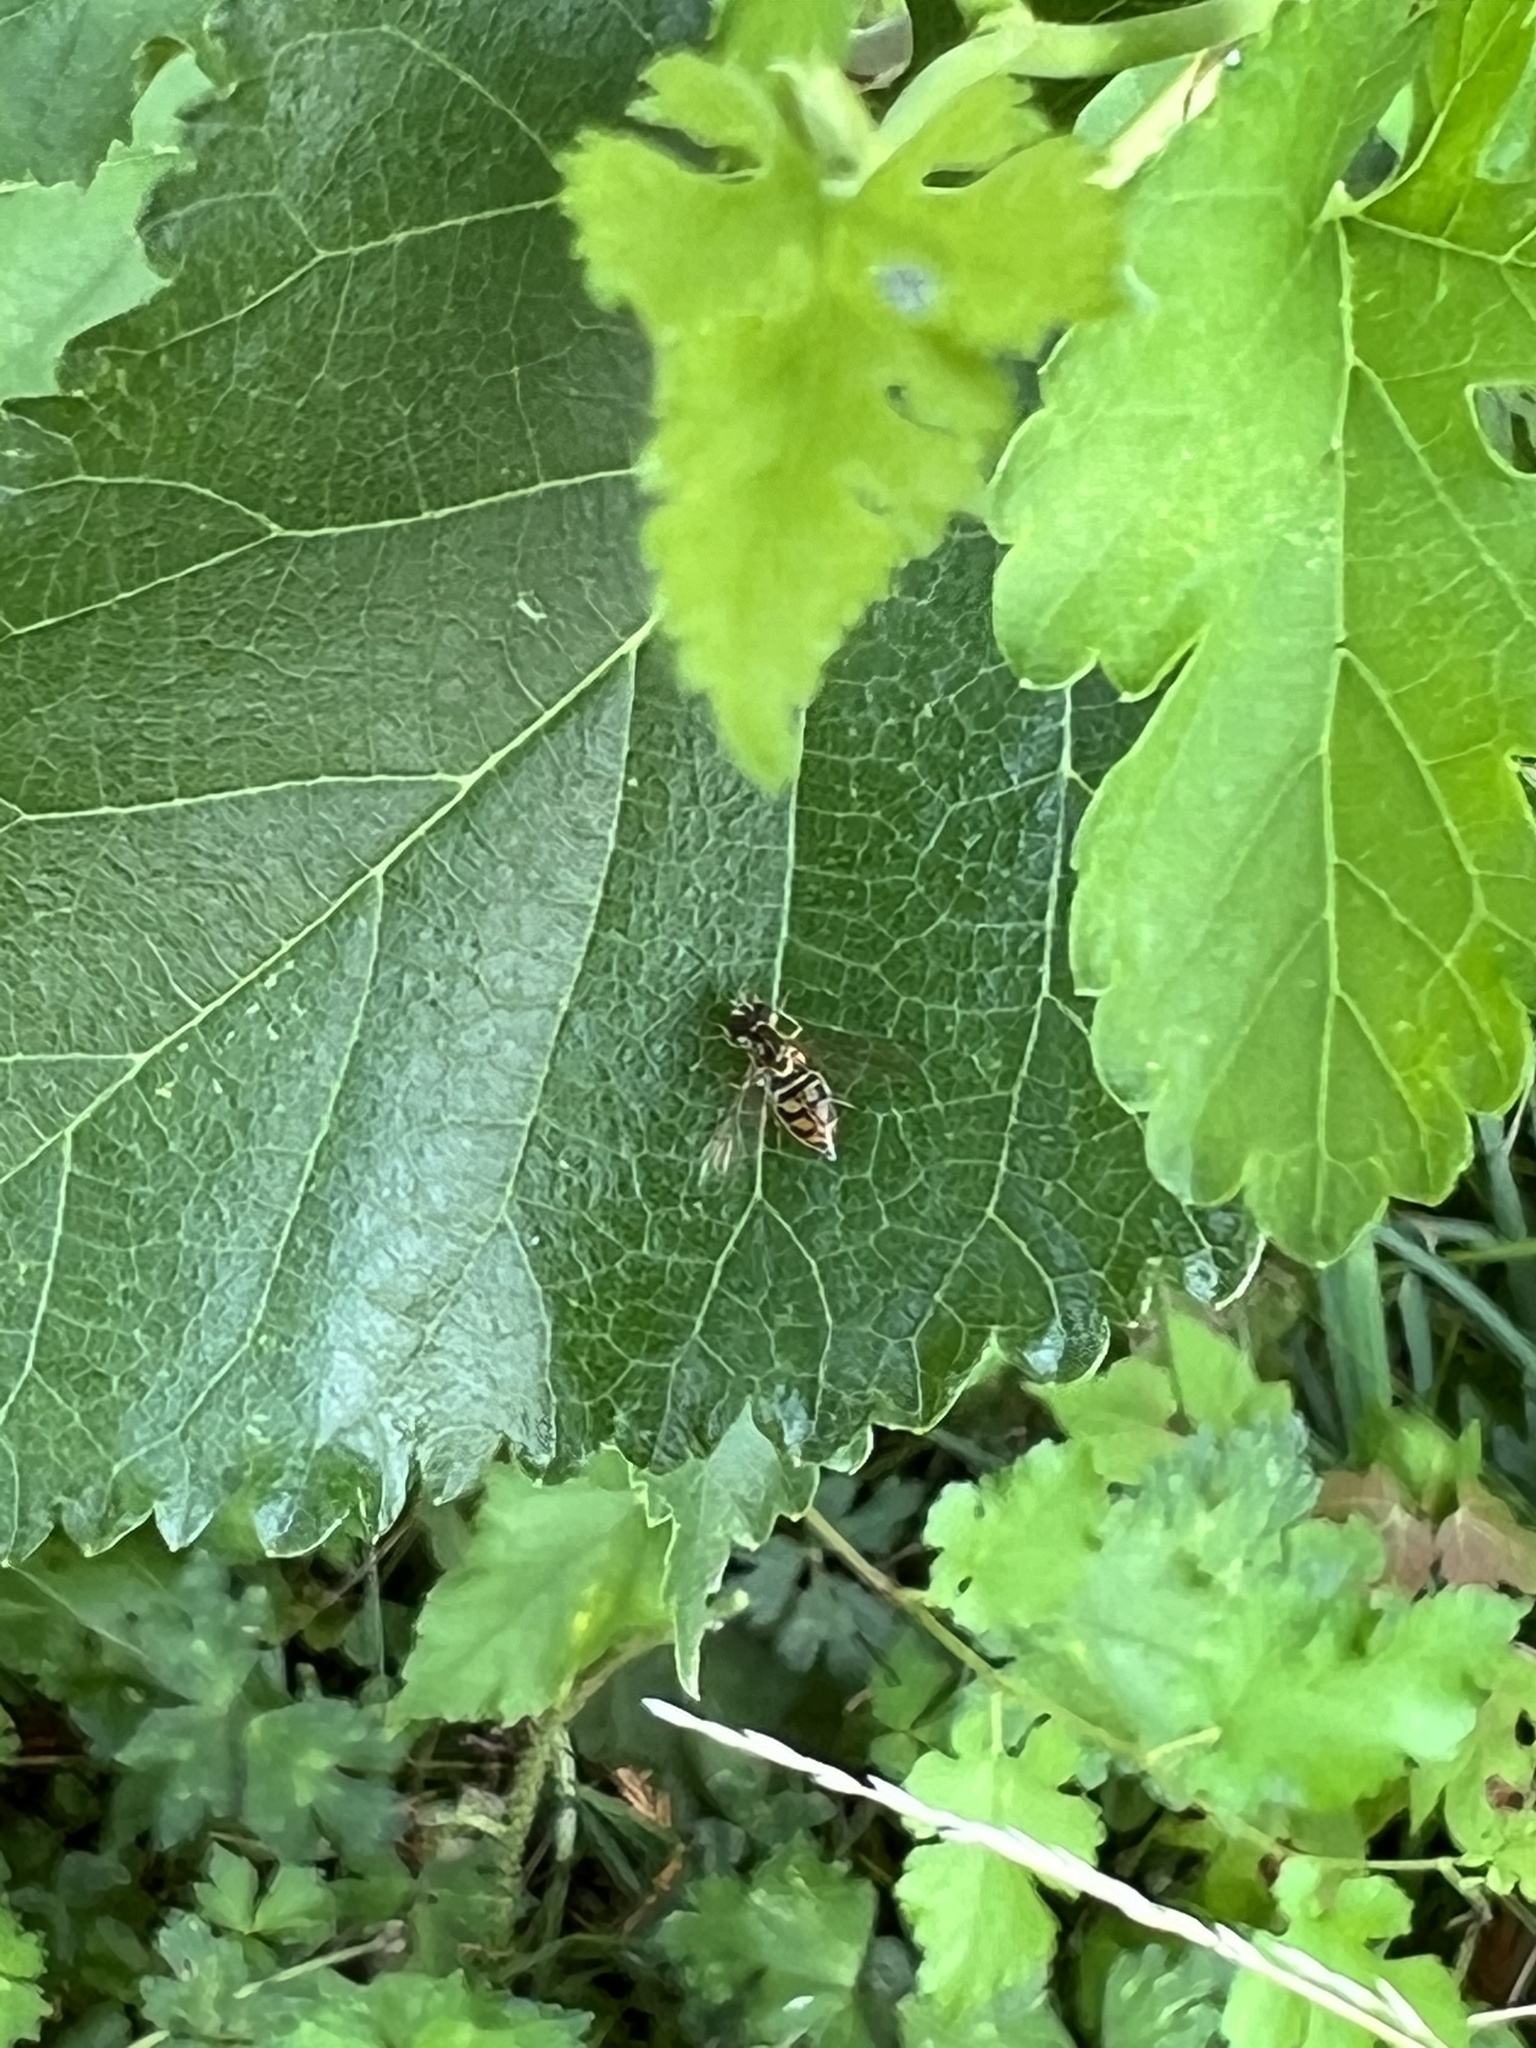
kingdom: Animalia
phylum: Arthropoda
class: Insecta
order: Diptera
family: Syrphidae
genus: Toxomerus
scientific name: Toxomerus marginatus
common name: Syrphid fly
